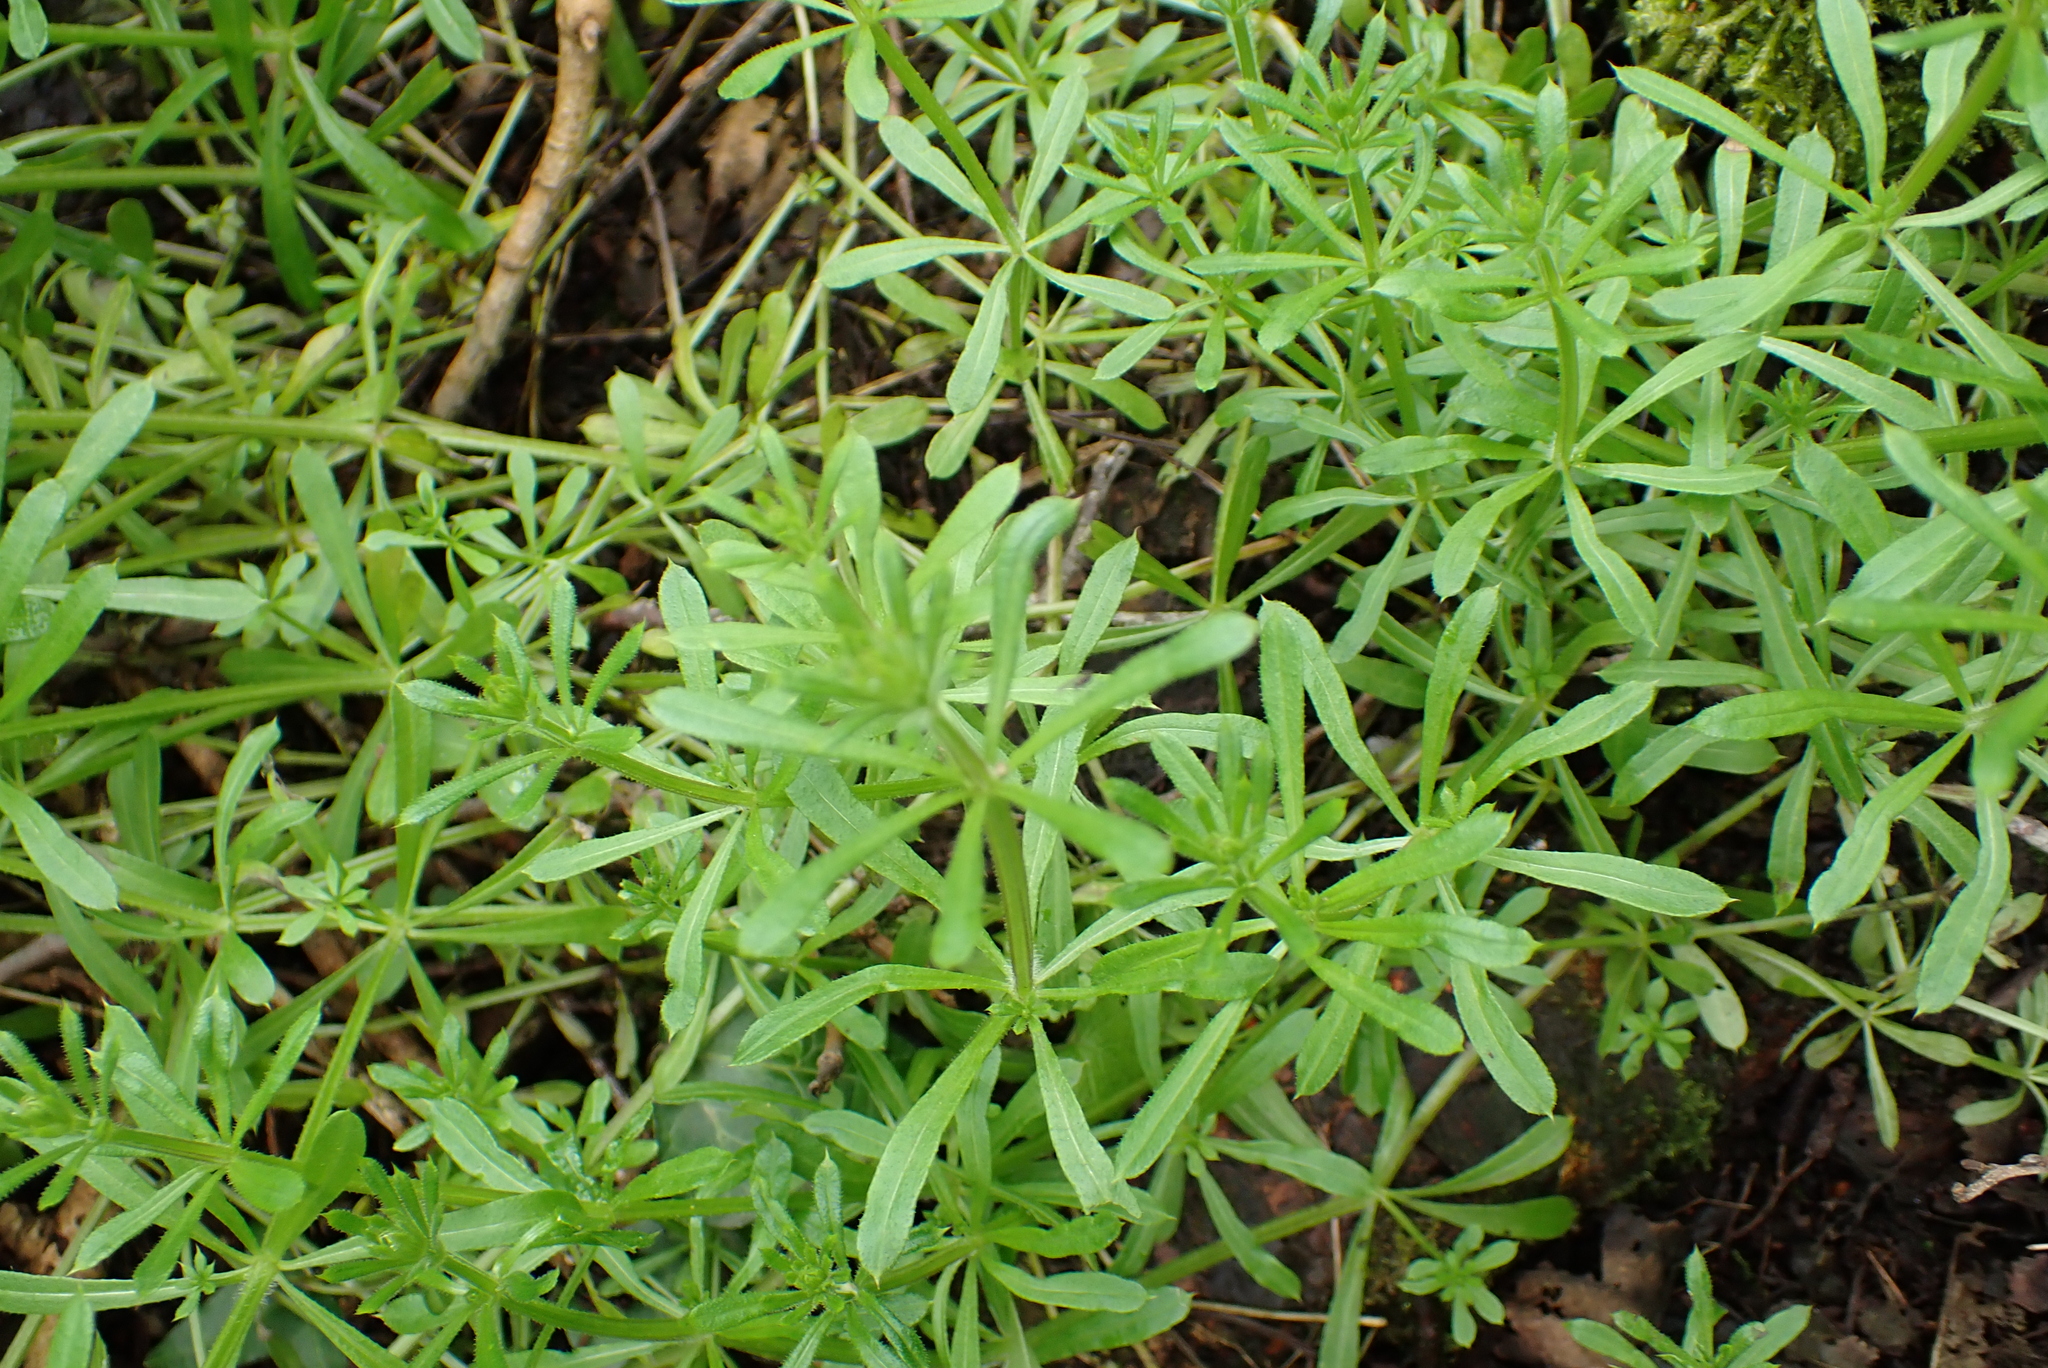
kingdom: Plantae
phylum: Tracheophyta
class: Magnoliopsida
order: Gentianales
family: Rubiaceae
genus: Galium
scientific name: Galium aparine
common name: Cleavers
